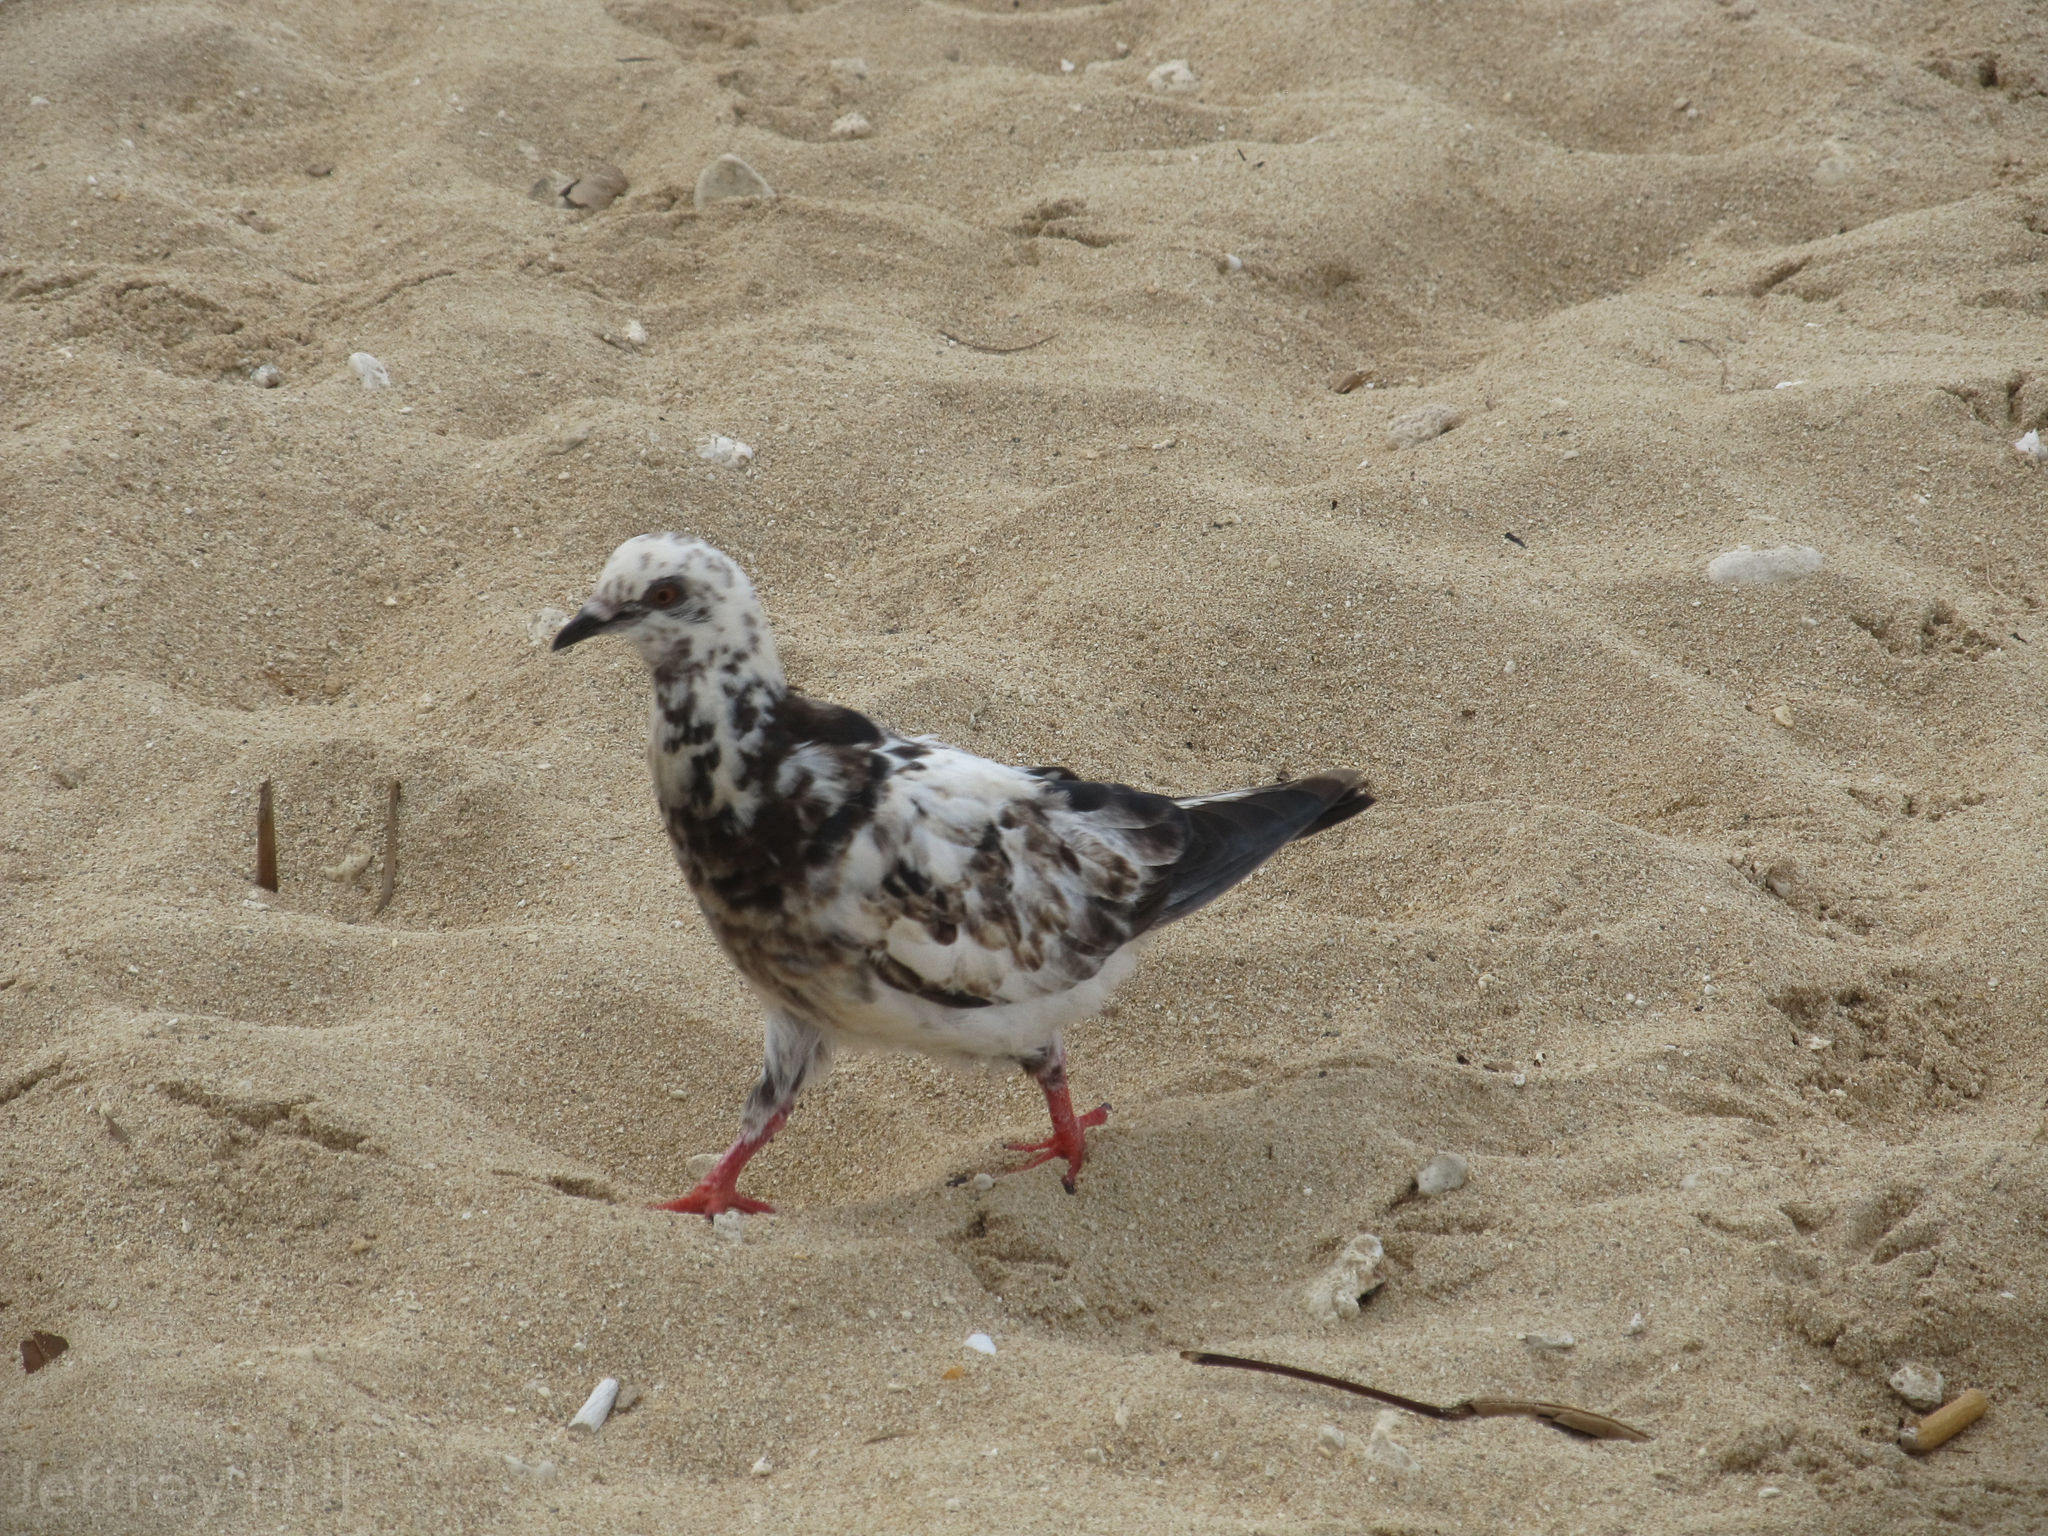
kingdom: Animalia
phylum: Chordata
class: Aves
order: Columbiformes
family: Columbidae
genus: Columba
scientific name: Columba livia
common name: Rock pigeon
